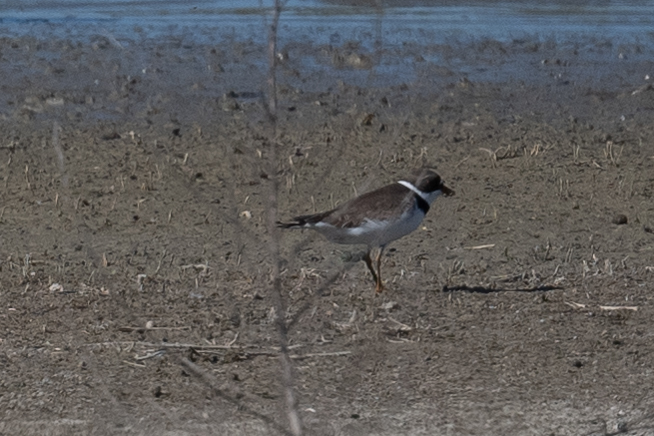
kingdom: Animalia
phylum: Chordata
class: Aves
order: Charadriiformes
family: Charadriidae
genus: Charadrius
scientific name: Charadrius semipalmatus
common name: Semipalmated plover
